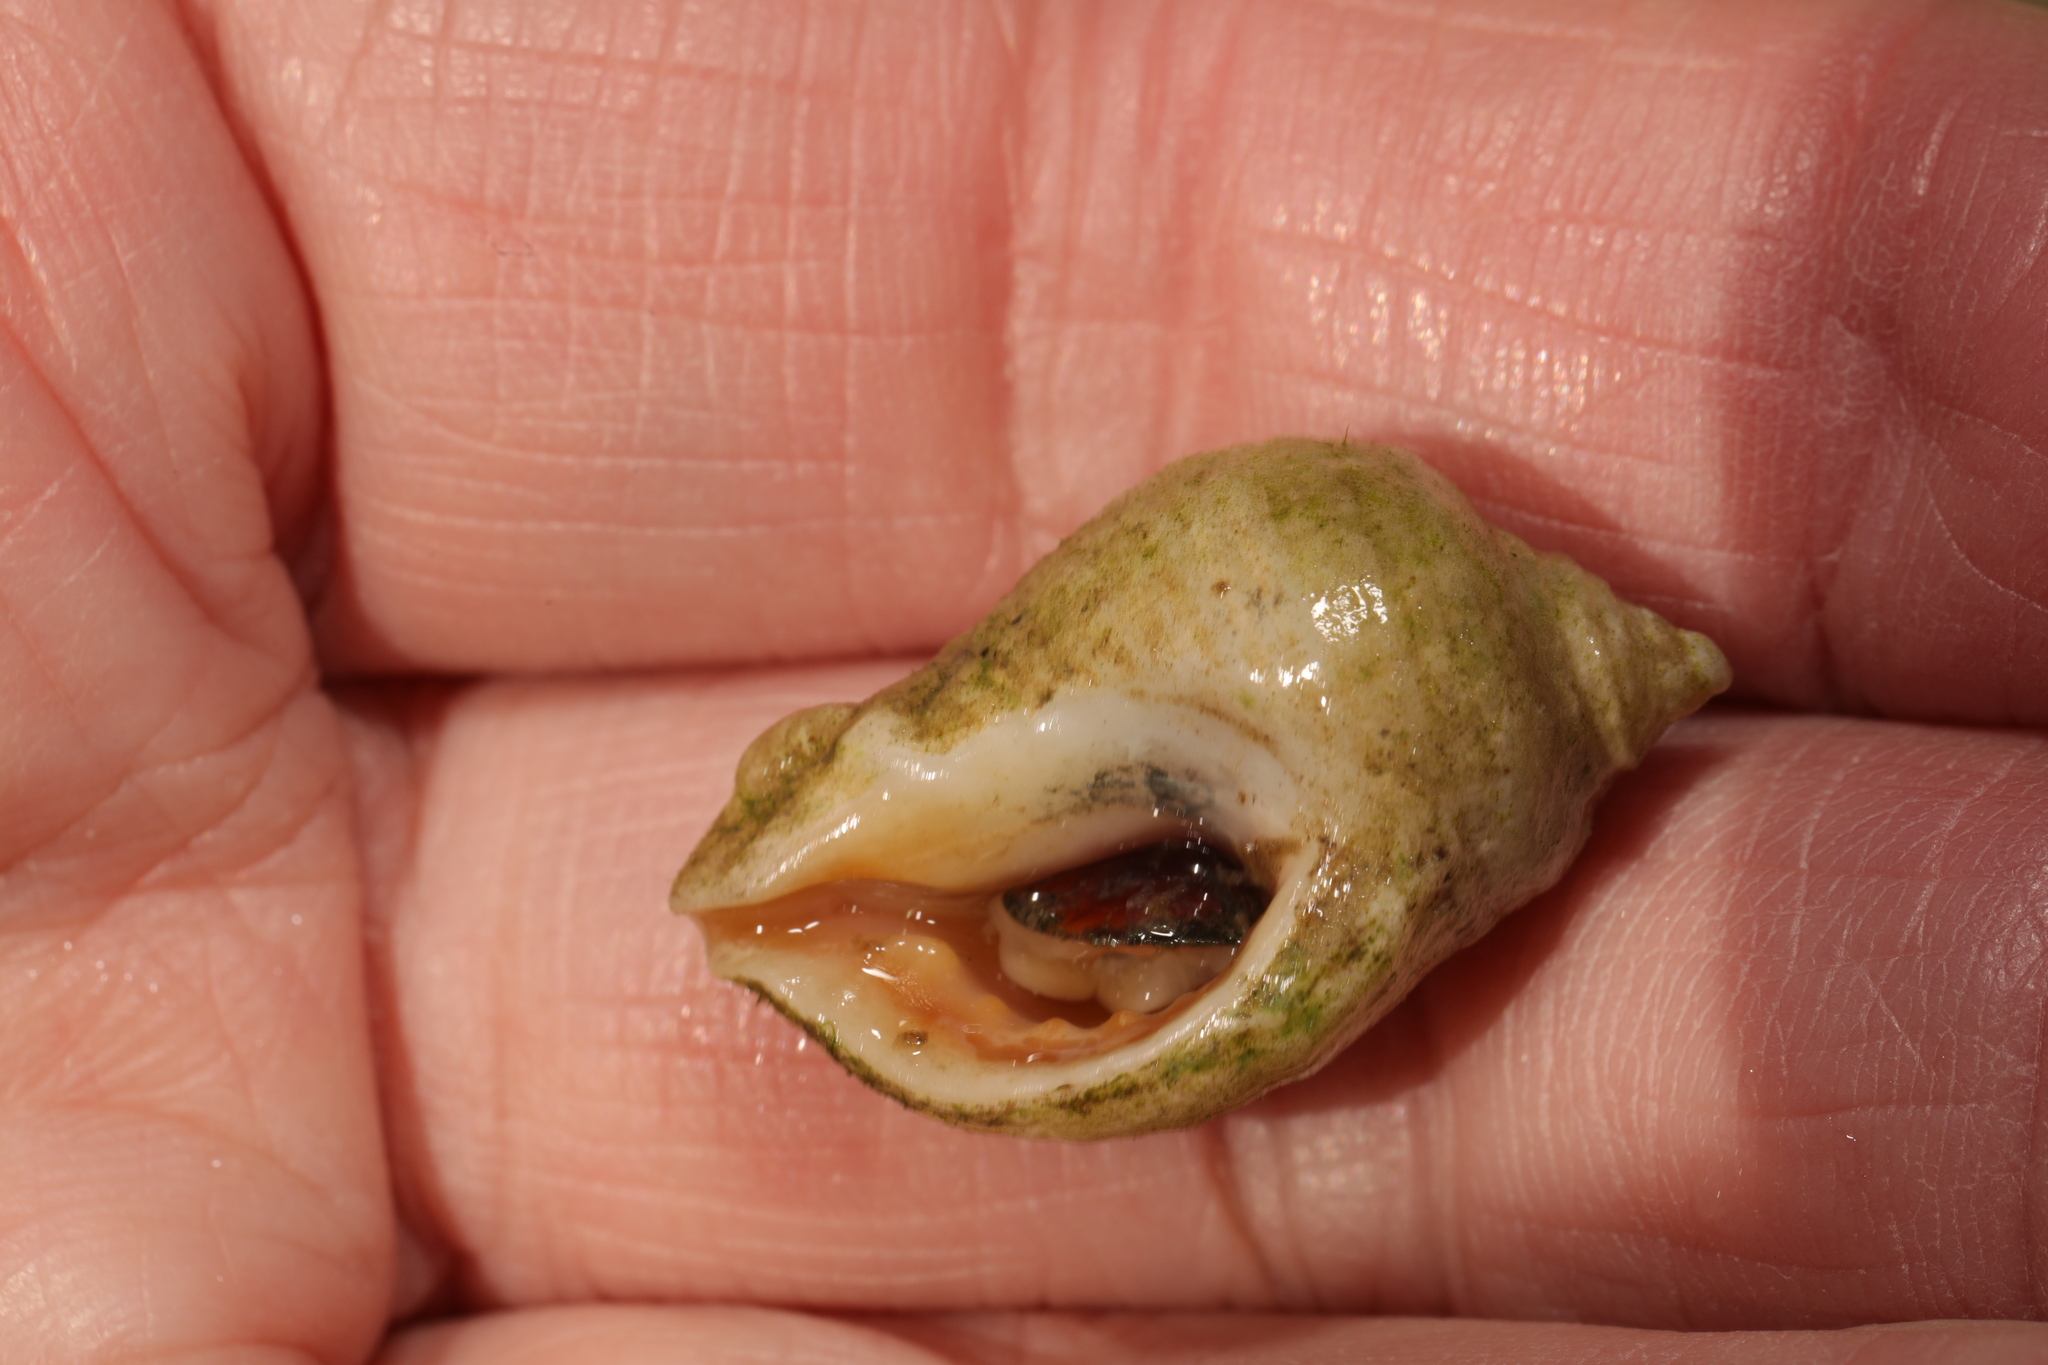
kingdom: Animalia
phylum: Mollusca
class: Gastropoda
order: Neogastropoda
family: Muricidae
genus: Nucella
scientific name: Nucella lapillus
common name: Dog whelk
